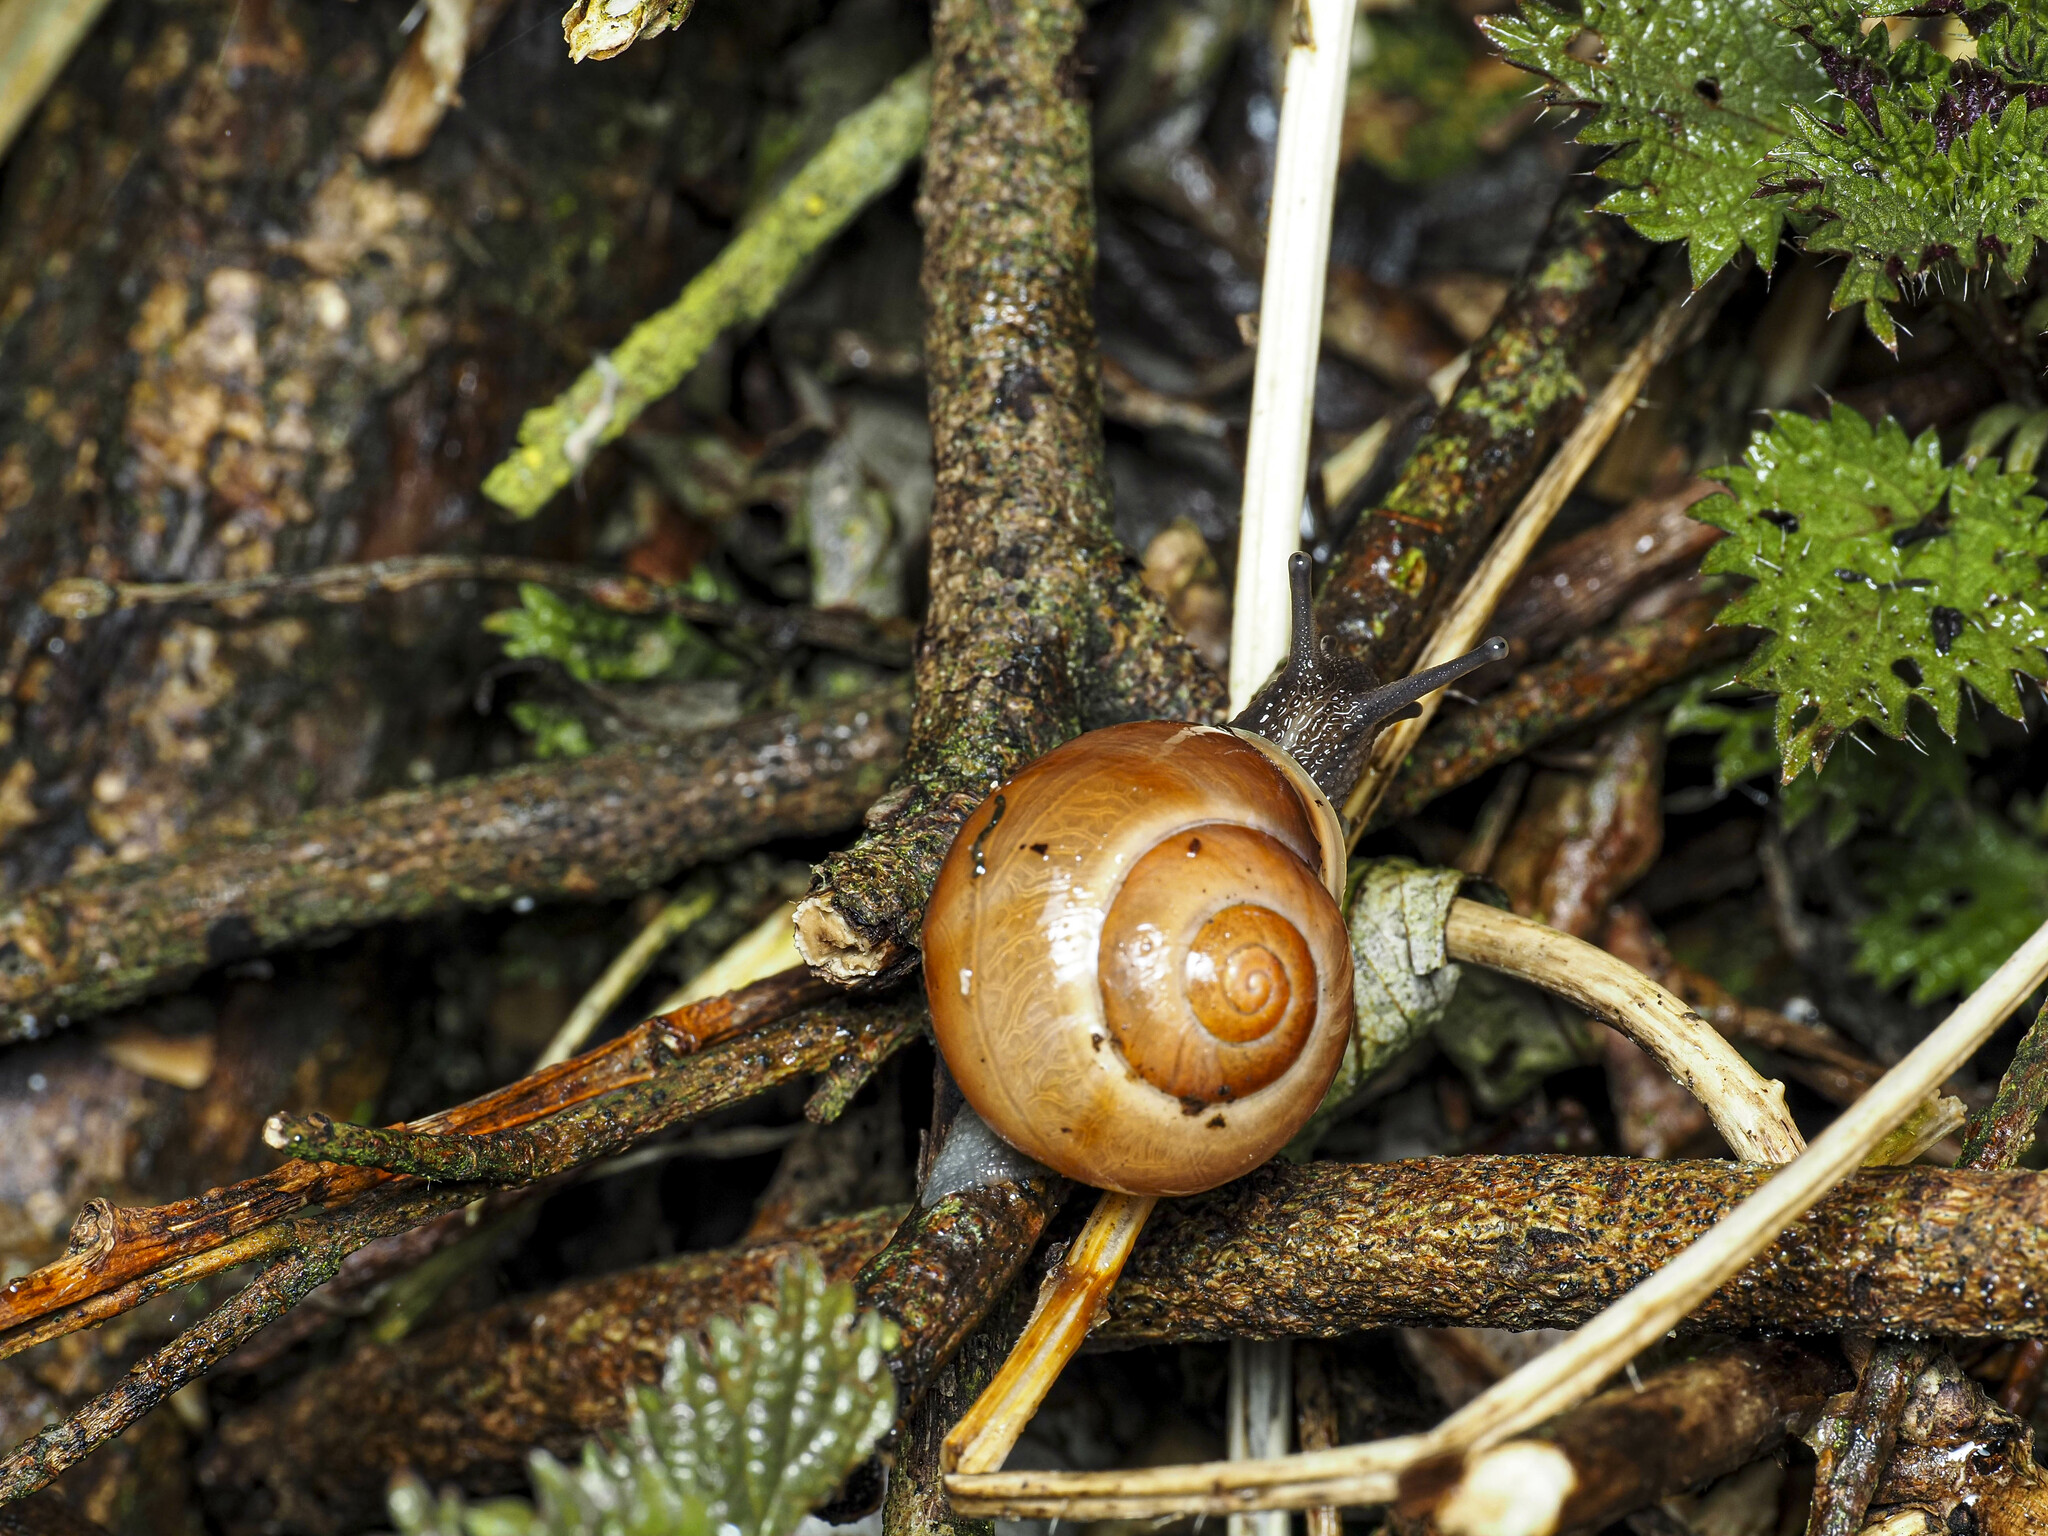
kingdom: Animalia
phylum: Mollusca
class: Gastropoda
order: Stylommatophora
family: Helicidae
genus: Cepaea
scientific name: Cepaea hortensis
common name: White-lip gardensnail
